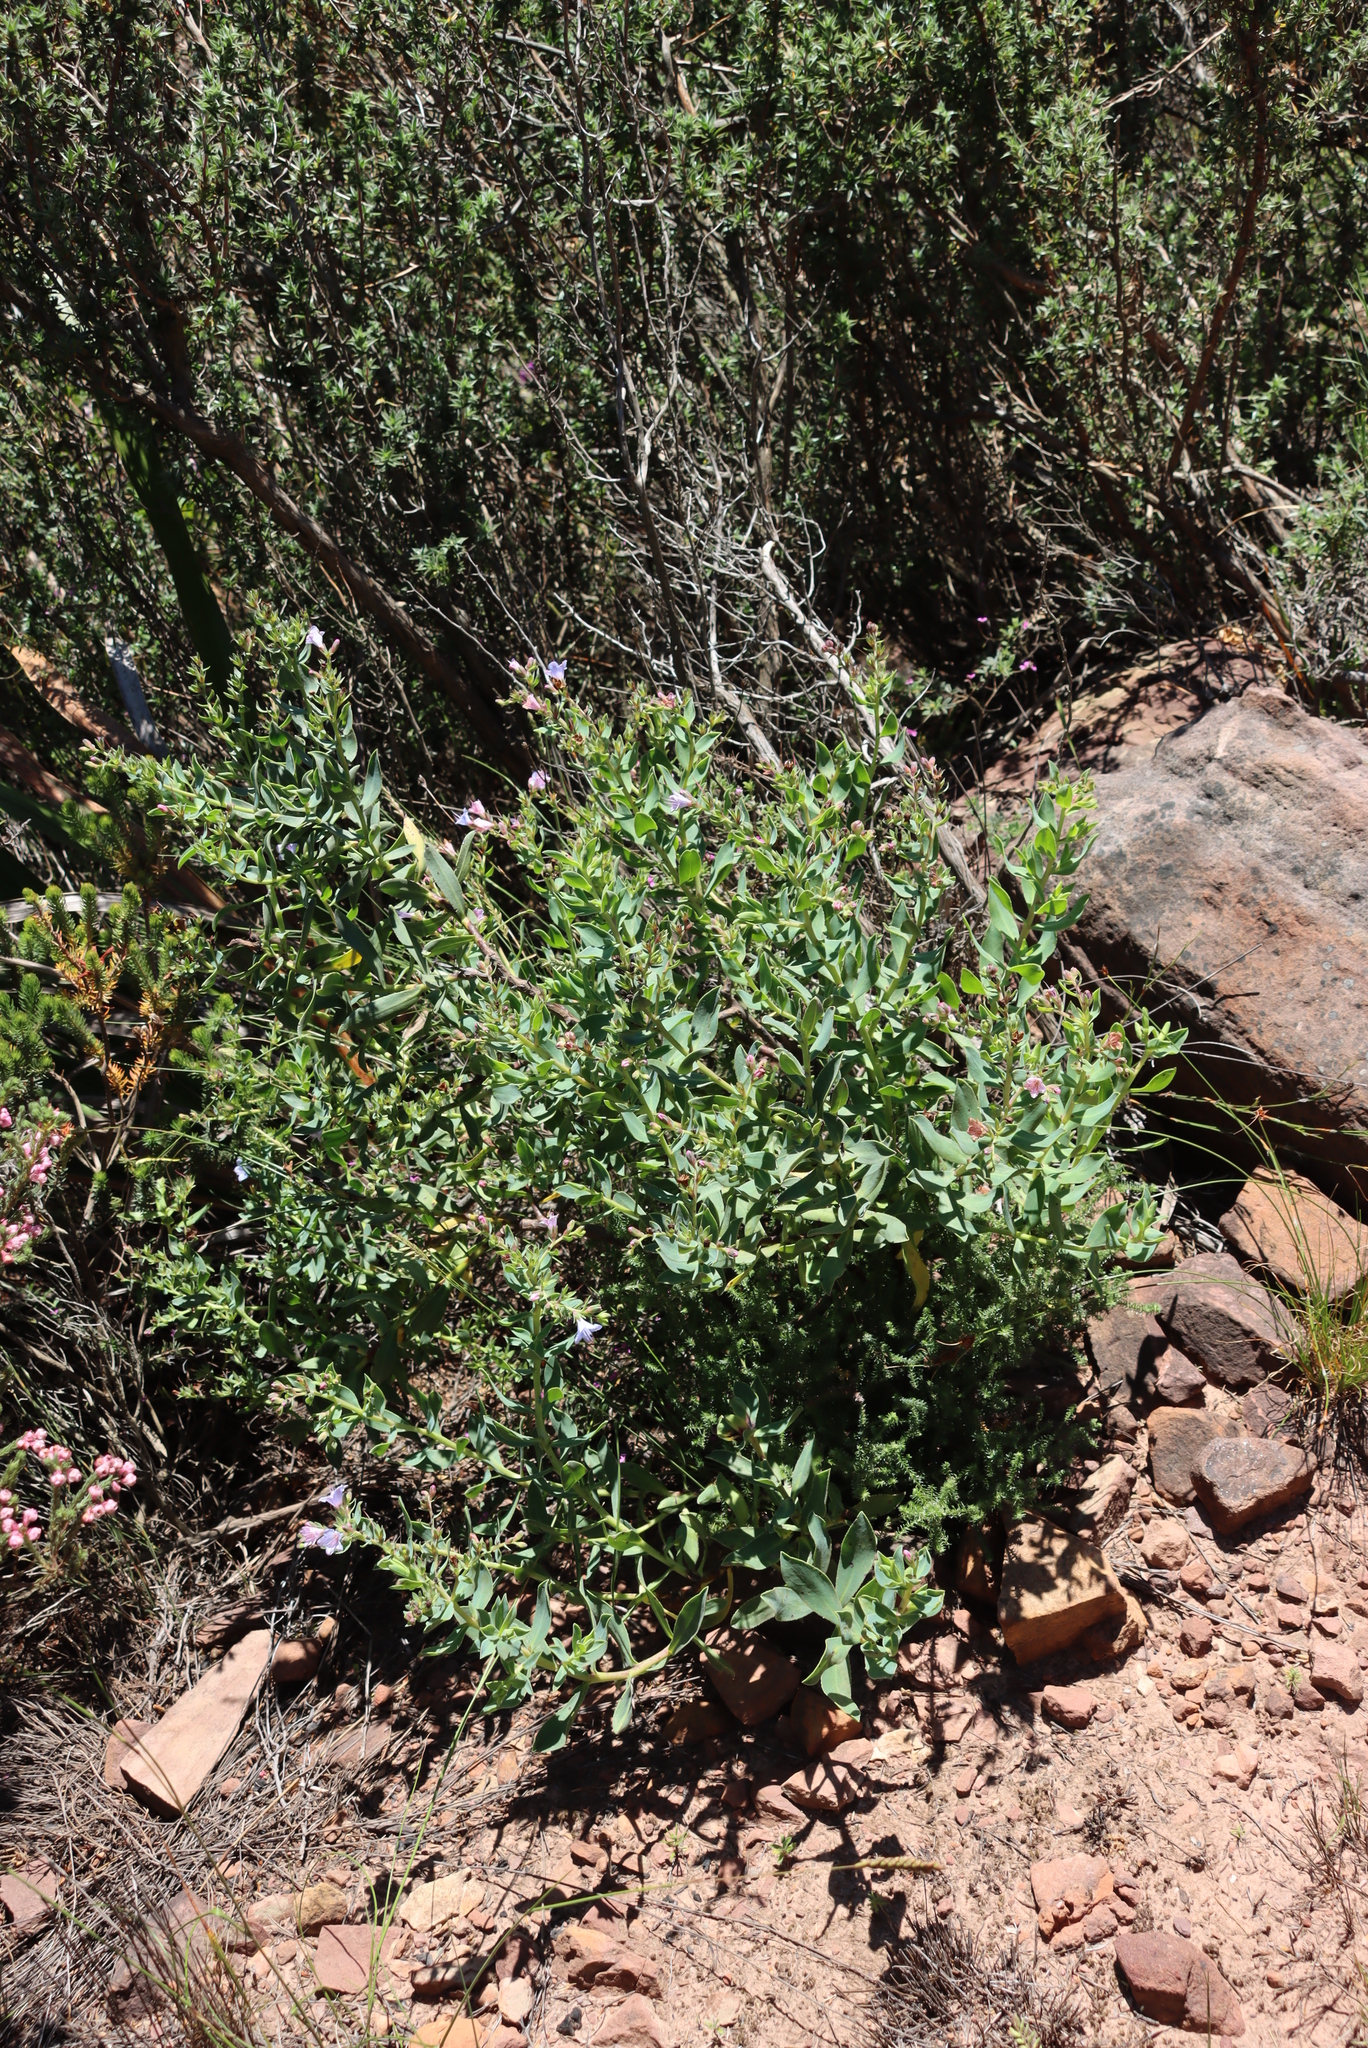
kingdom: Plantae
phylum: Tracheophyta
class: Magnoliopsida
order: Boraginales
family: Boraginaceae
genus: Lobostemon
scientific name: Lobostemon glaucophyllus
